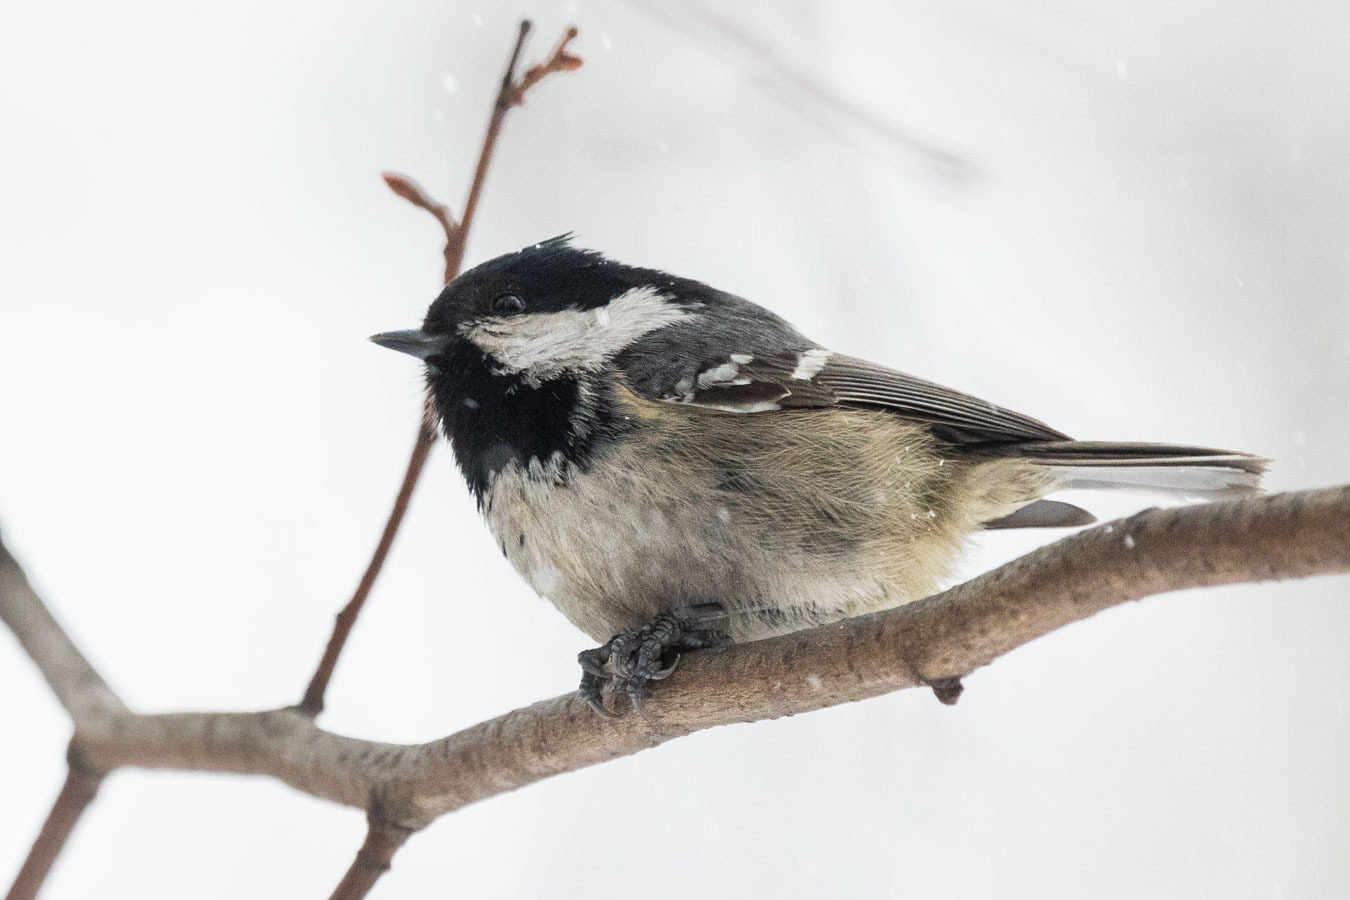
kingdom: Animalia
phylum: Chordata
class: Aves
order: Passeriformes
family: Paridae
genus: Periparus
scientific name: Periparus ater
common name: Coal tit
